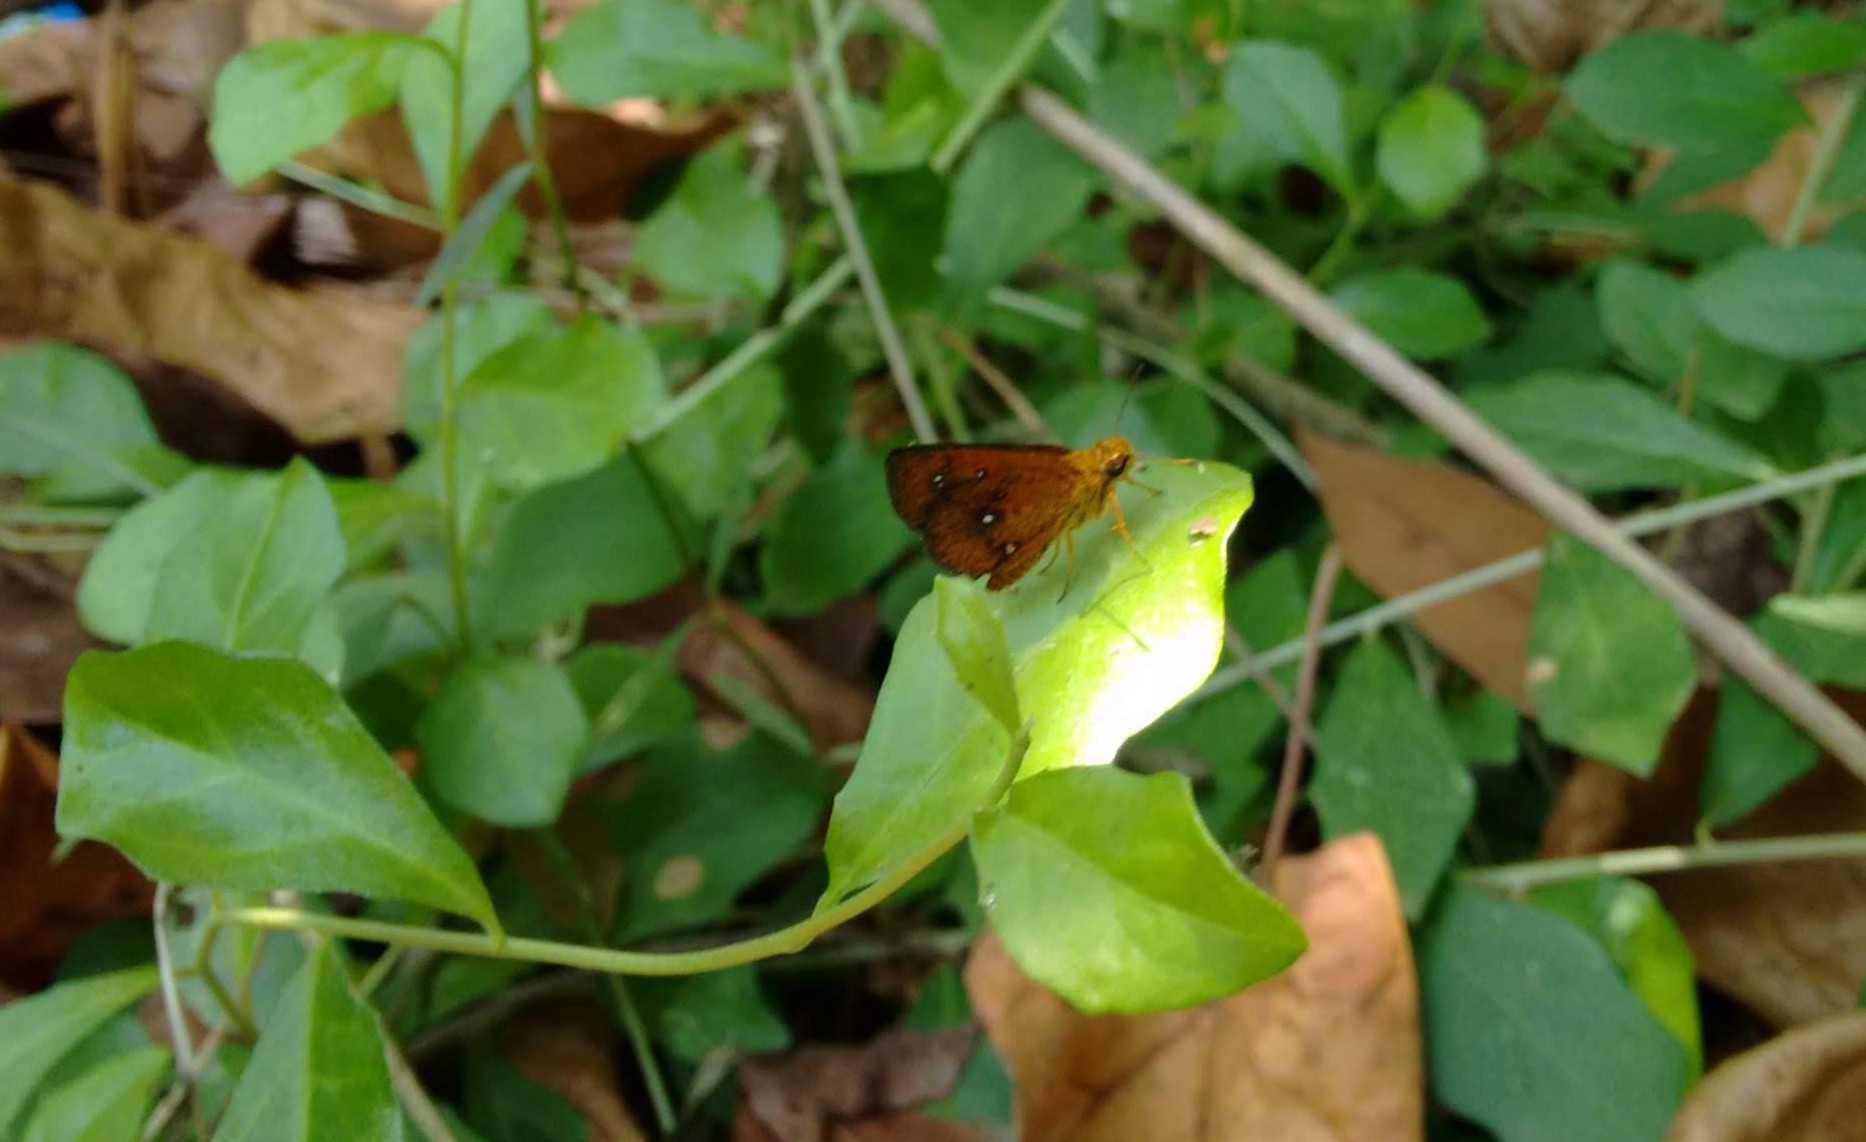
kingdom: Animalia
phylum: Arthropoda
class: Insecta
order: Lepidoptera
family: Hesperiidae
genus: Iambrix
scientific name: Iambrix salsala
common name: Chestnut bob
